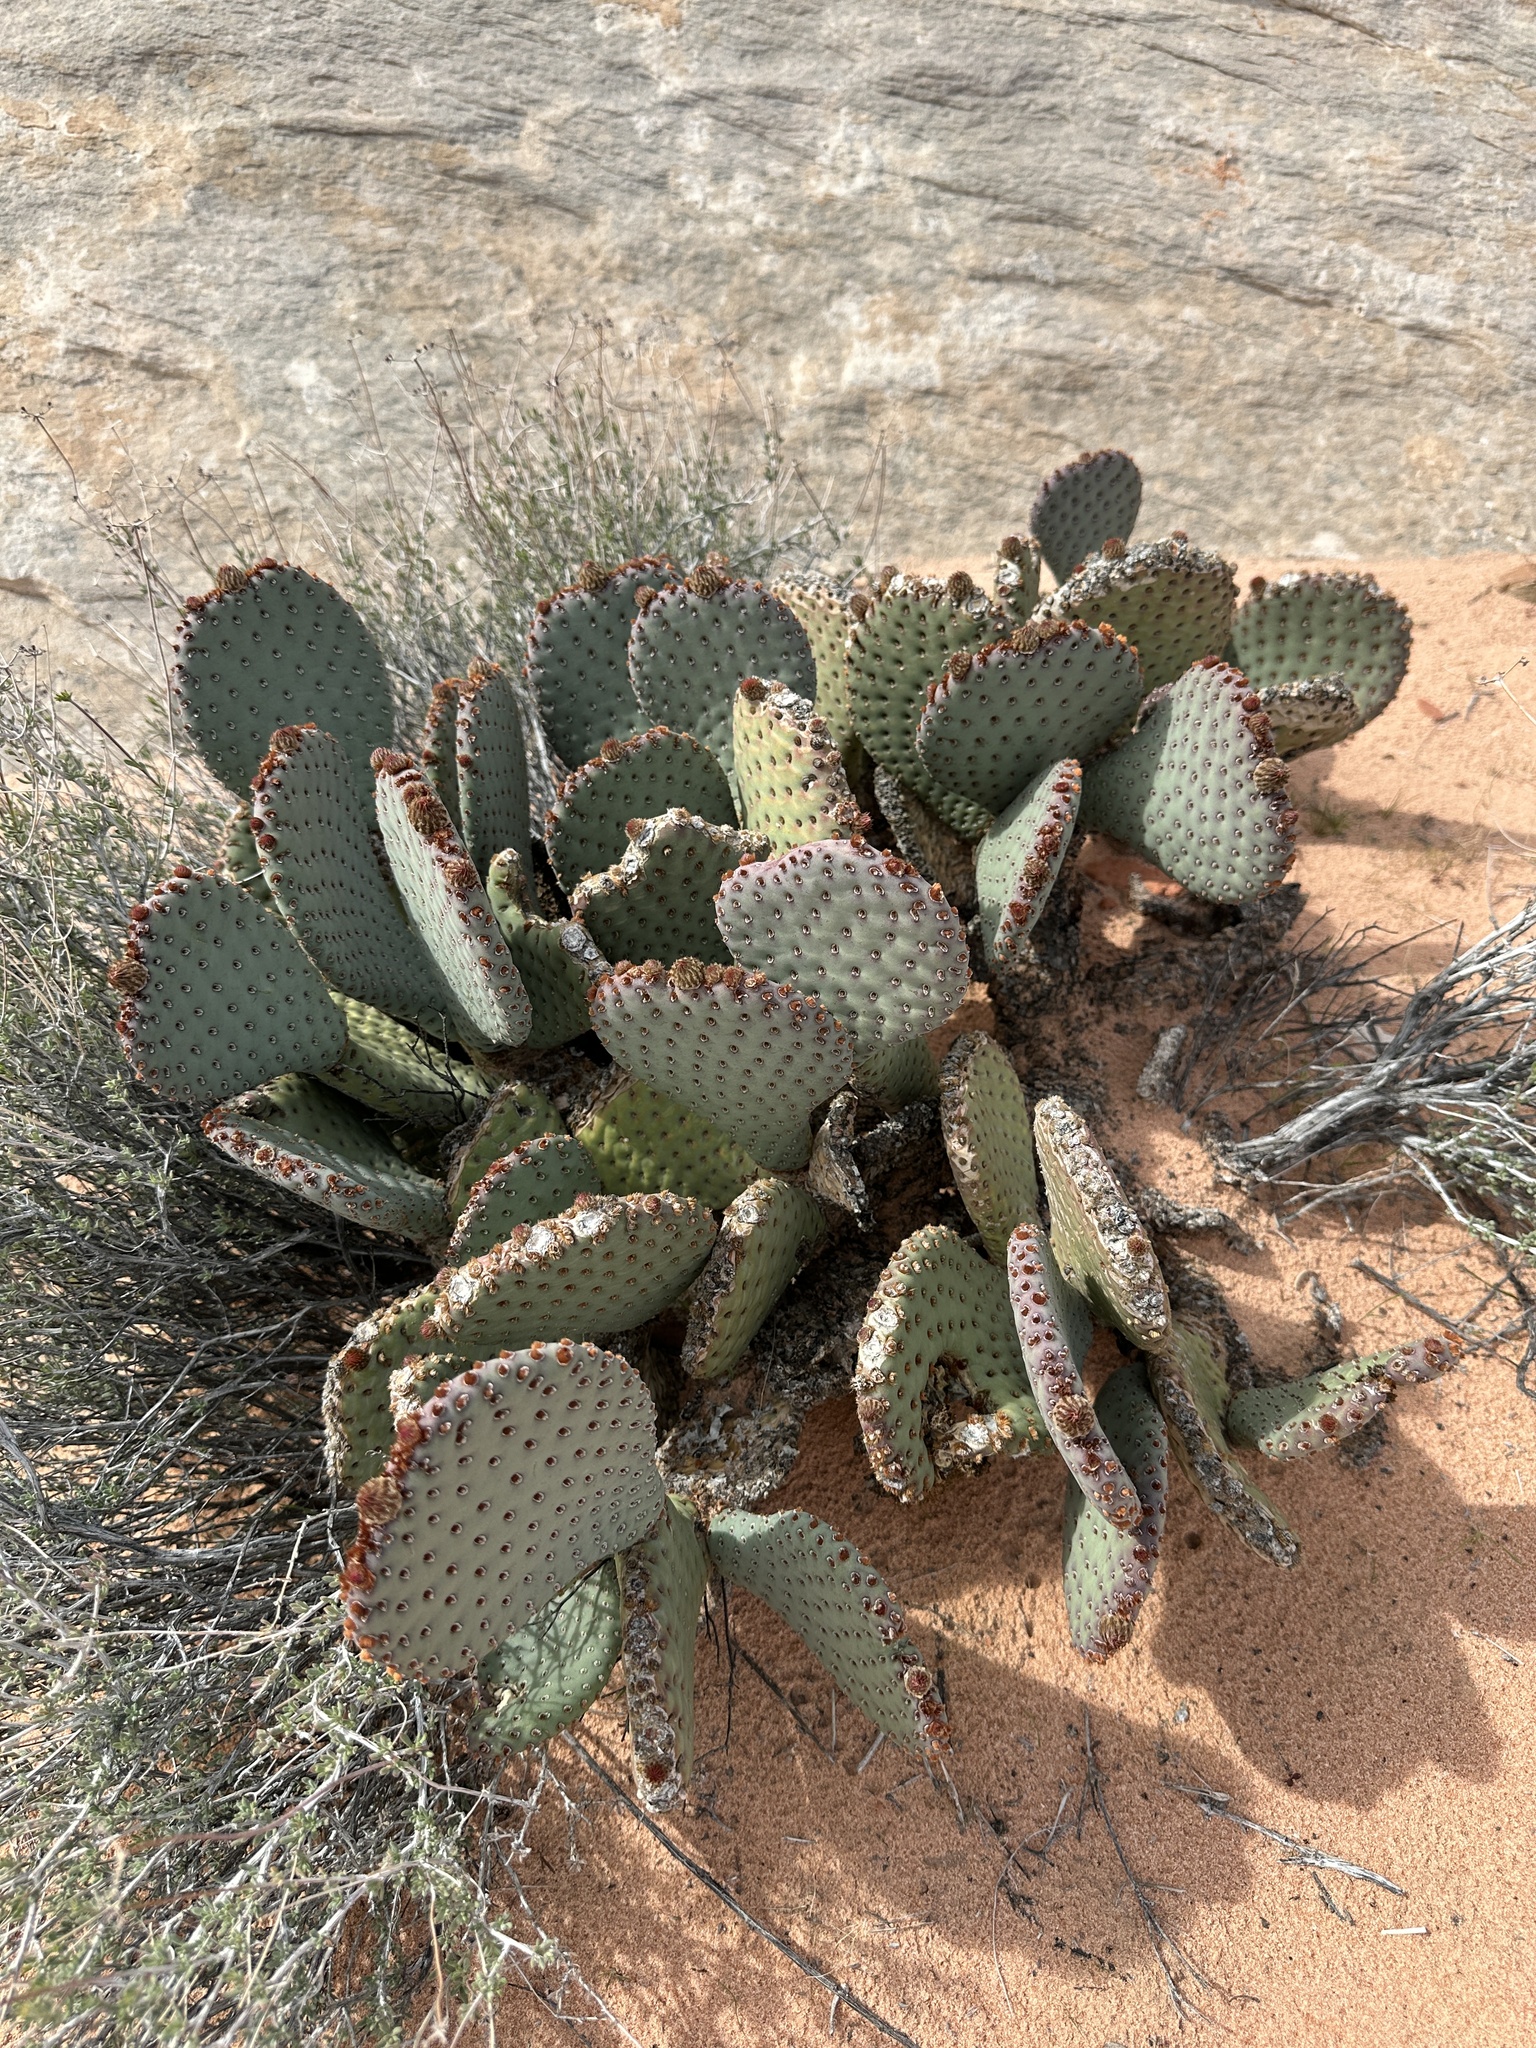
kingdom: Plantae
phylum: Tracheophyta
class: Magnoliopsida
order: Caryophyllales
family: Cactaceae
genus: Opuntia
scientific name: Opuntia basilaris
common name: Beavertail prickly-pear
